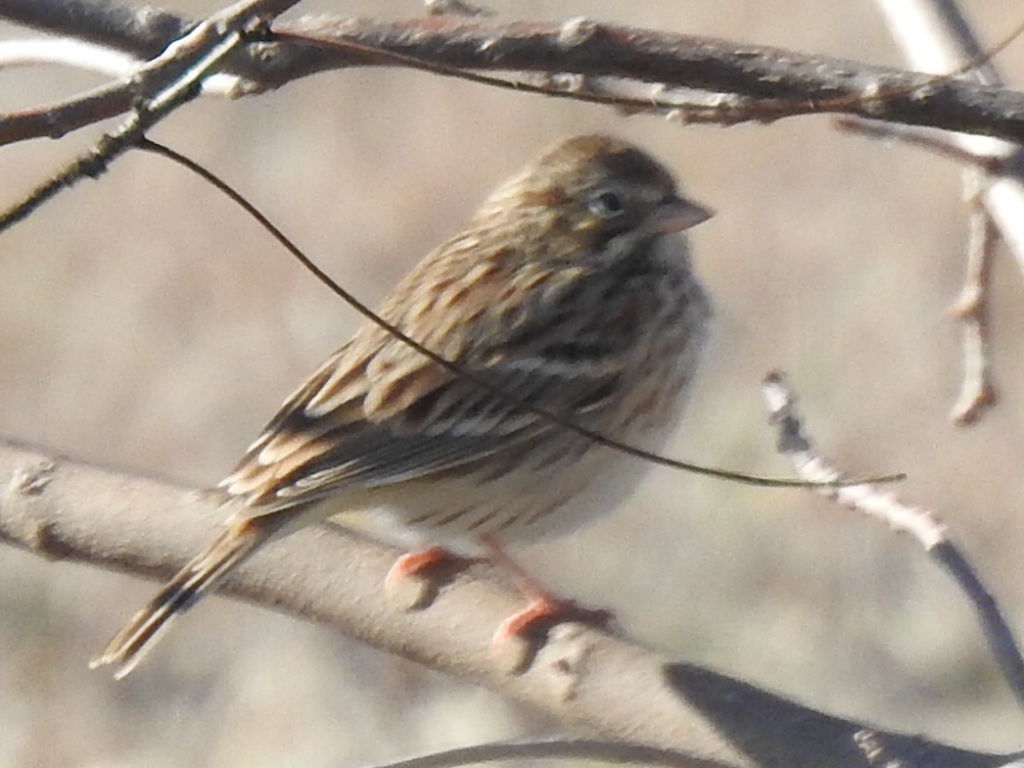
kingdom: Animalia
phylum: Chordata
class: Aves
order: Passeriformes
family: Passerellidae
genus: Pooecetes
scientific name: Pooecetes gramineus
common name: Vesper sparrow
